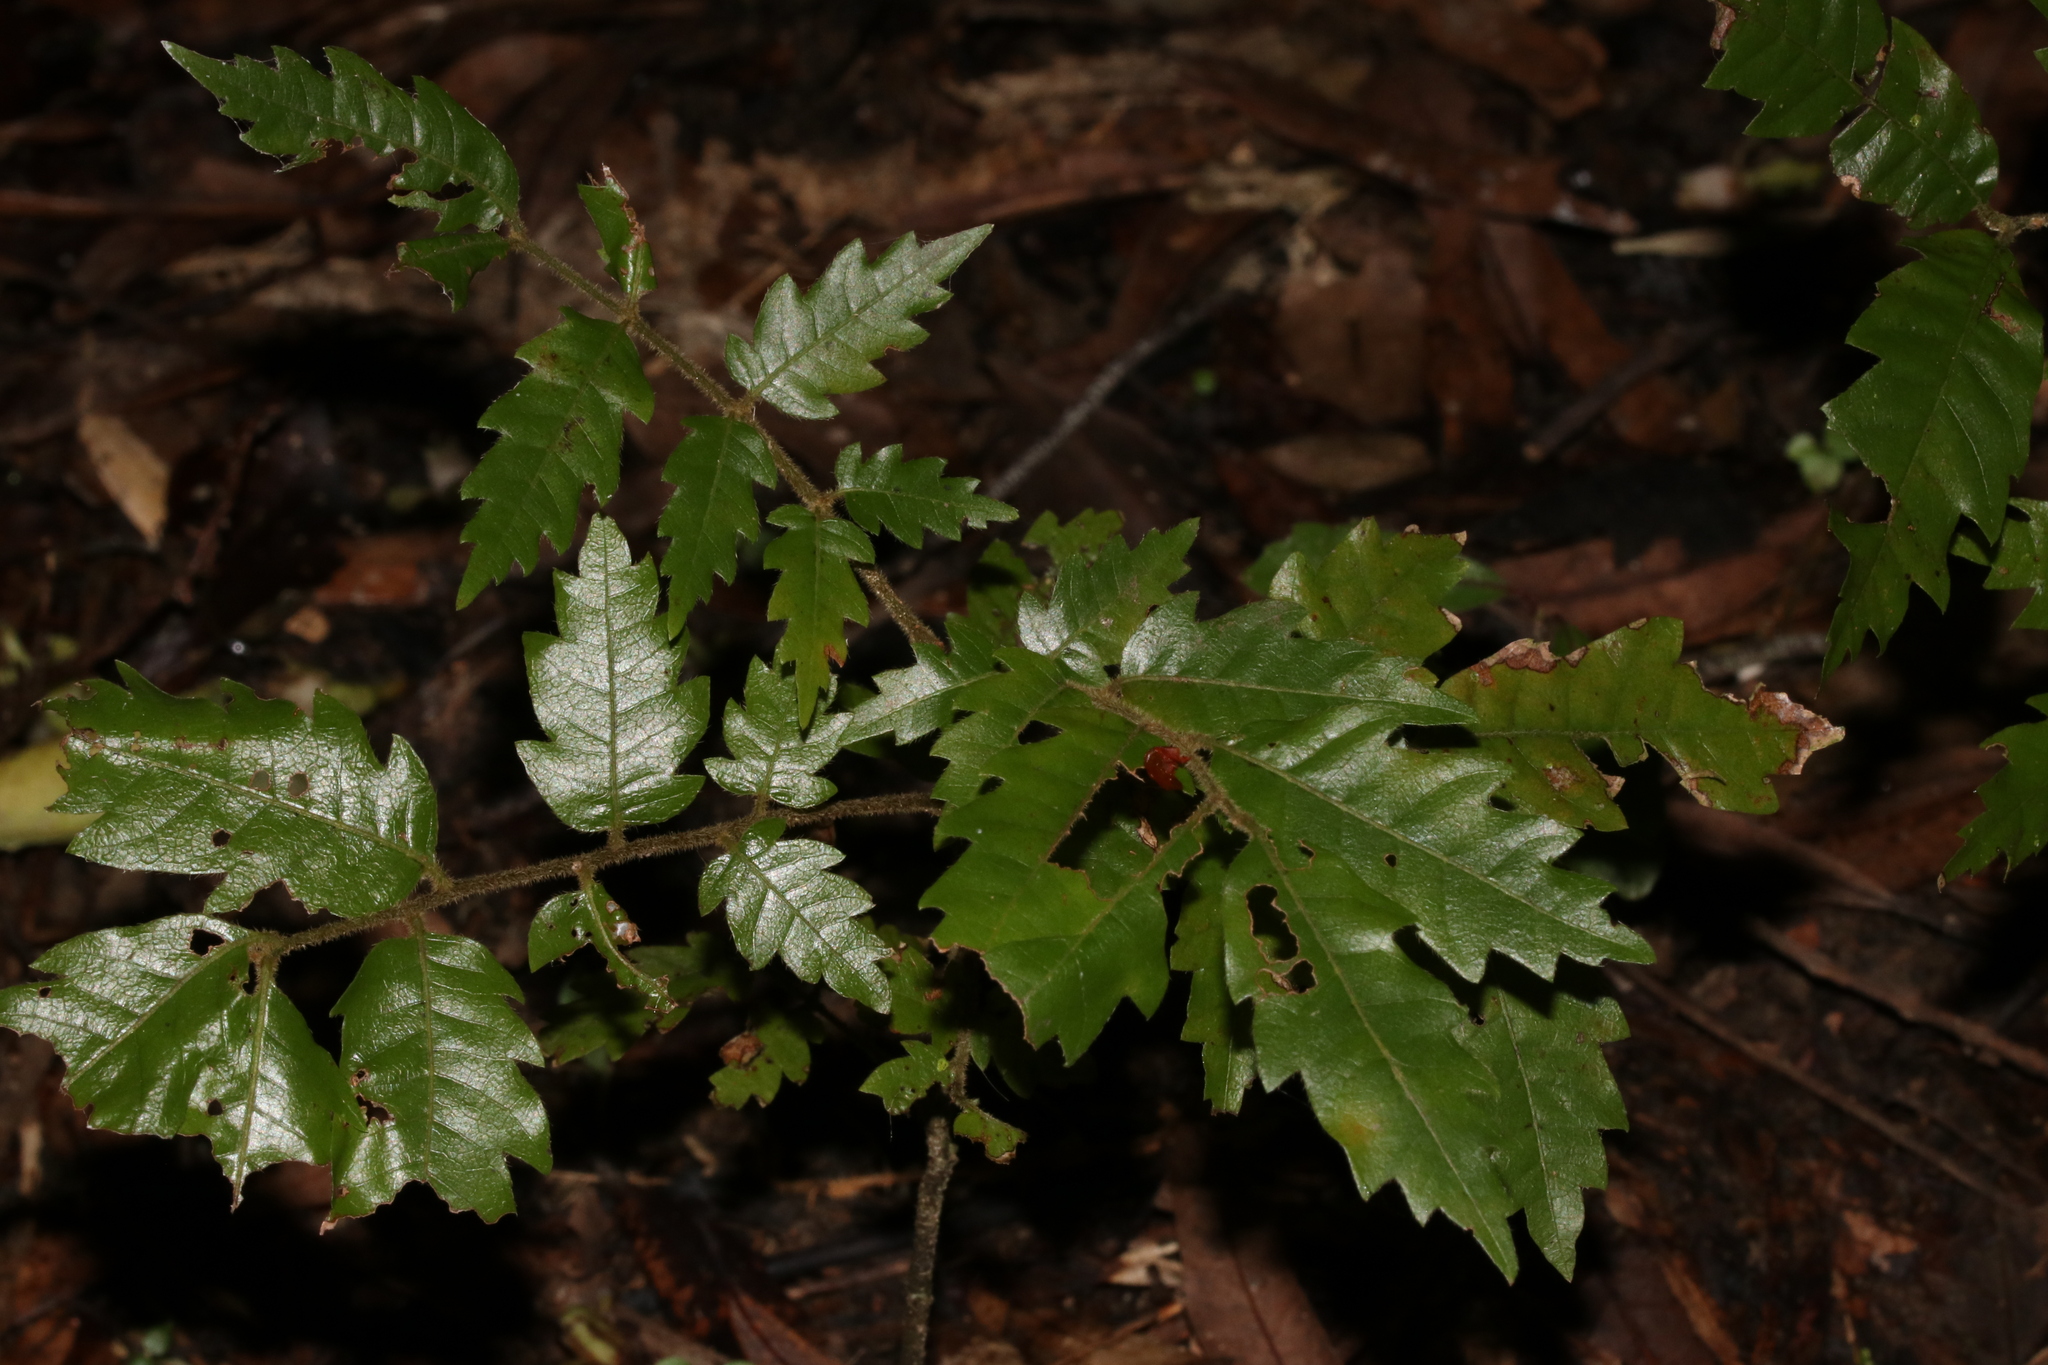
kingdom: Plantae
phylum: Tracheophyta
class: Magnoliopsida
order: Sapindales
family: Sapindaceae
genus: Alectryon
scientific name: Alectryon excelsus
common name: Three kings titoki
